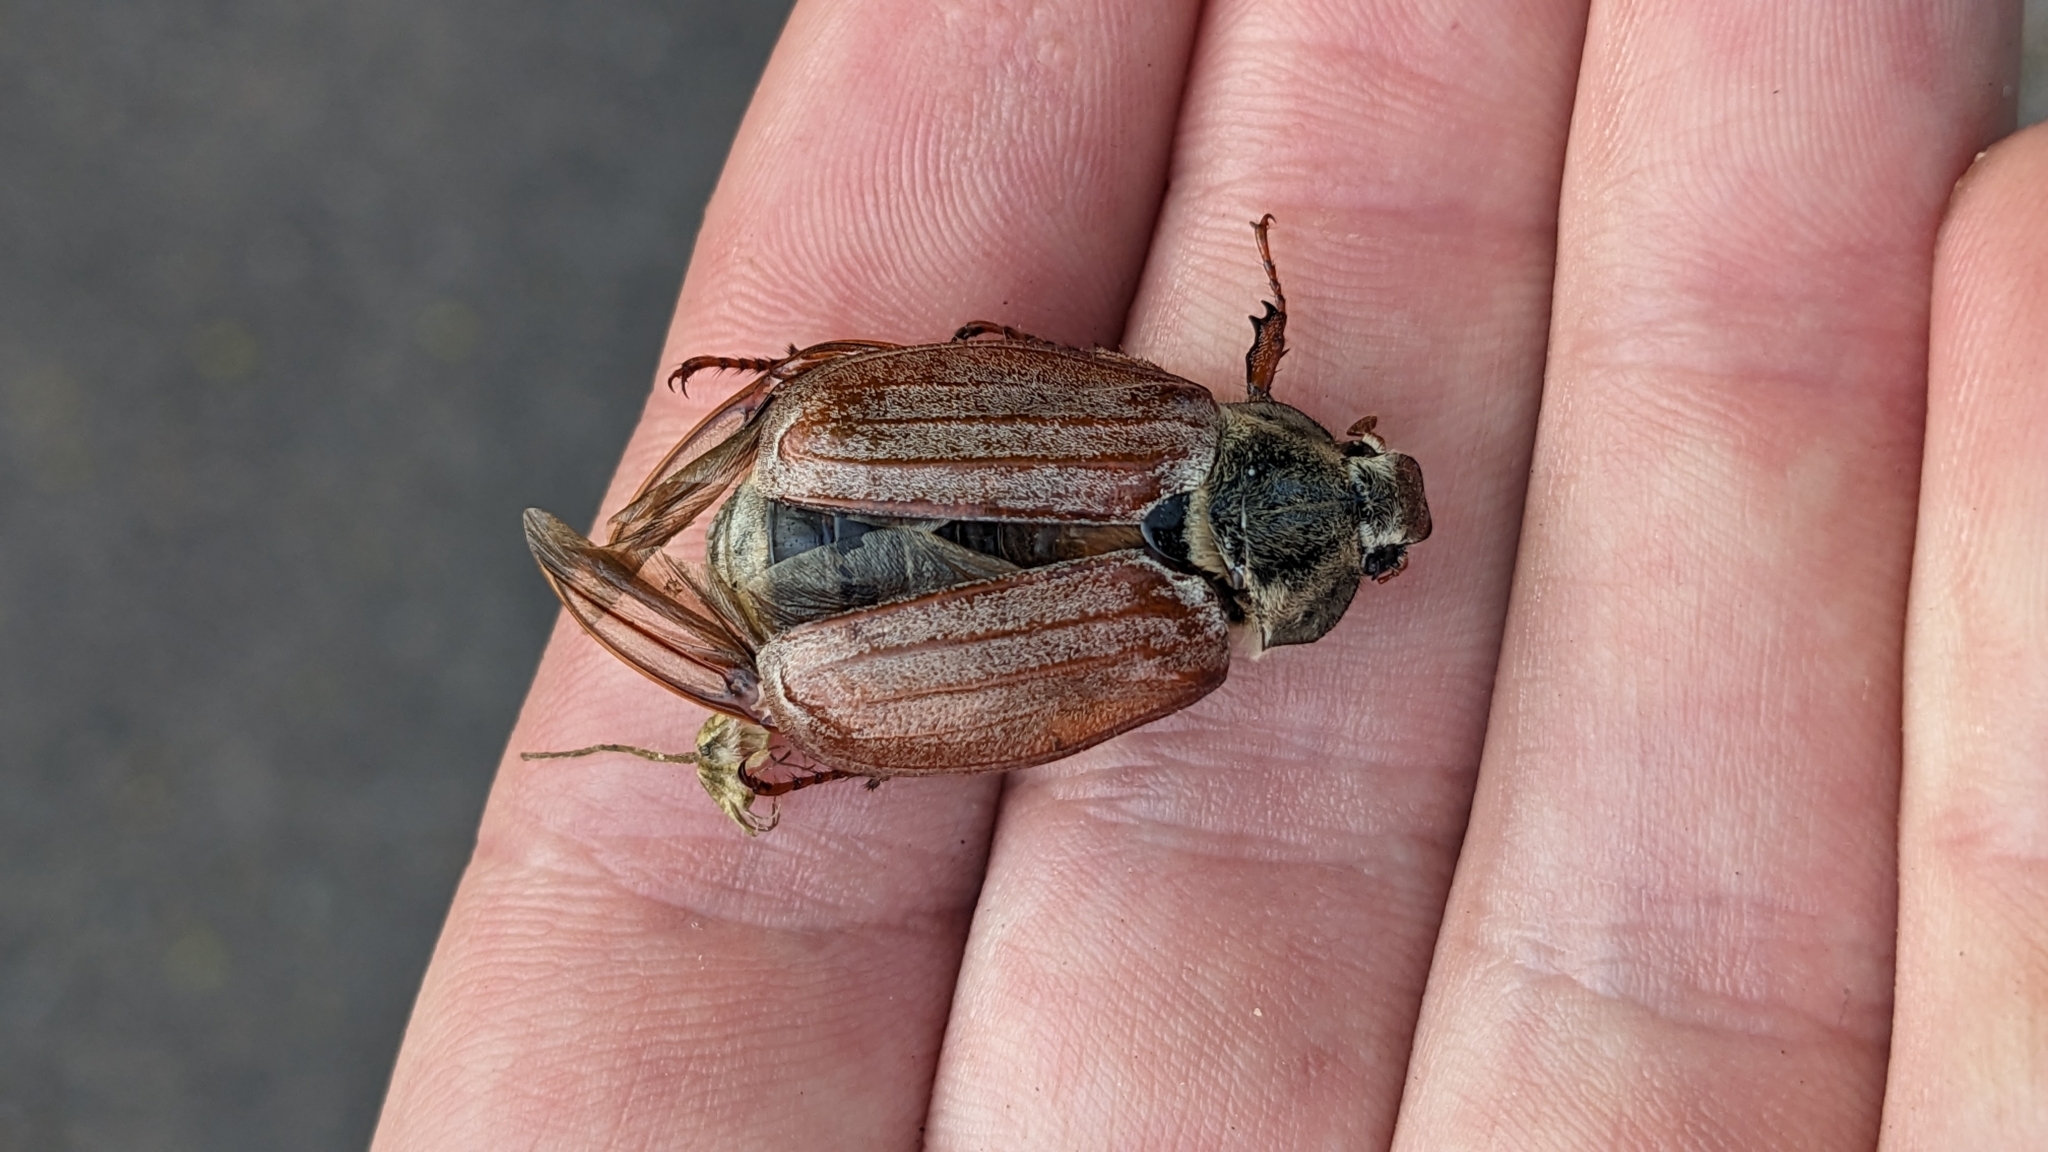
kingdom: Animalia
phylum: Arthropoda
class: Insecta
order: Coleoptera
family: Scarabaeidae
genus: Melolontha
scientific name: Melolontha melolontha
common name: Cockchafer maybeetle
